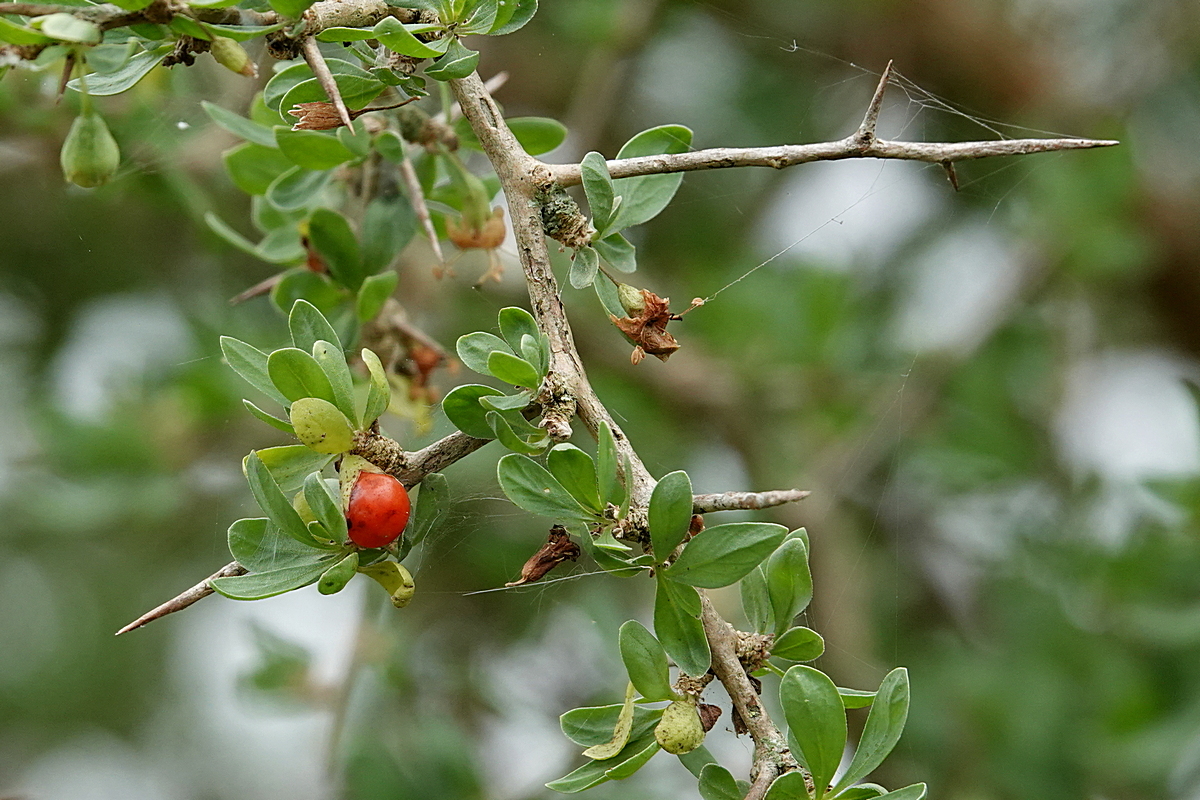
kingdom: Plantae
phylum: Tracheophyta
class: Magnoliopsida
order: Solanales
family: Solanaceae
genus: Lycium
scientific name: Lycium ferocissimum
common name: African boxthorn
